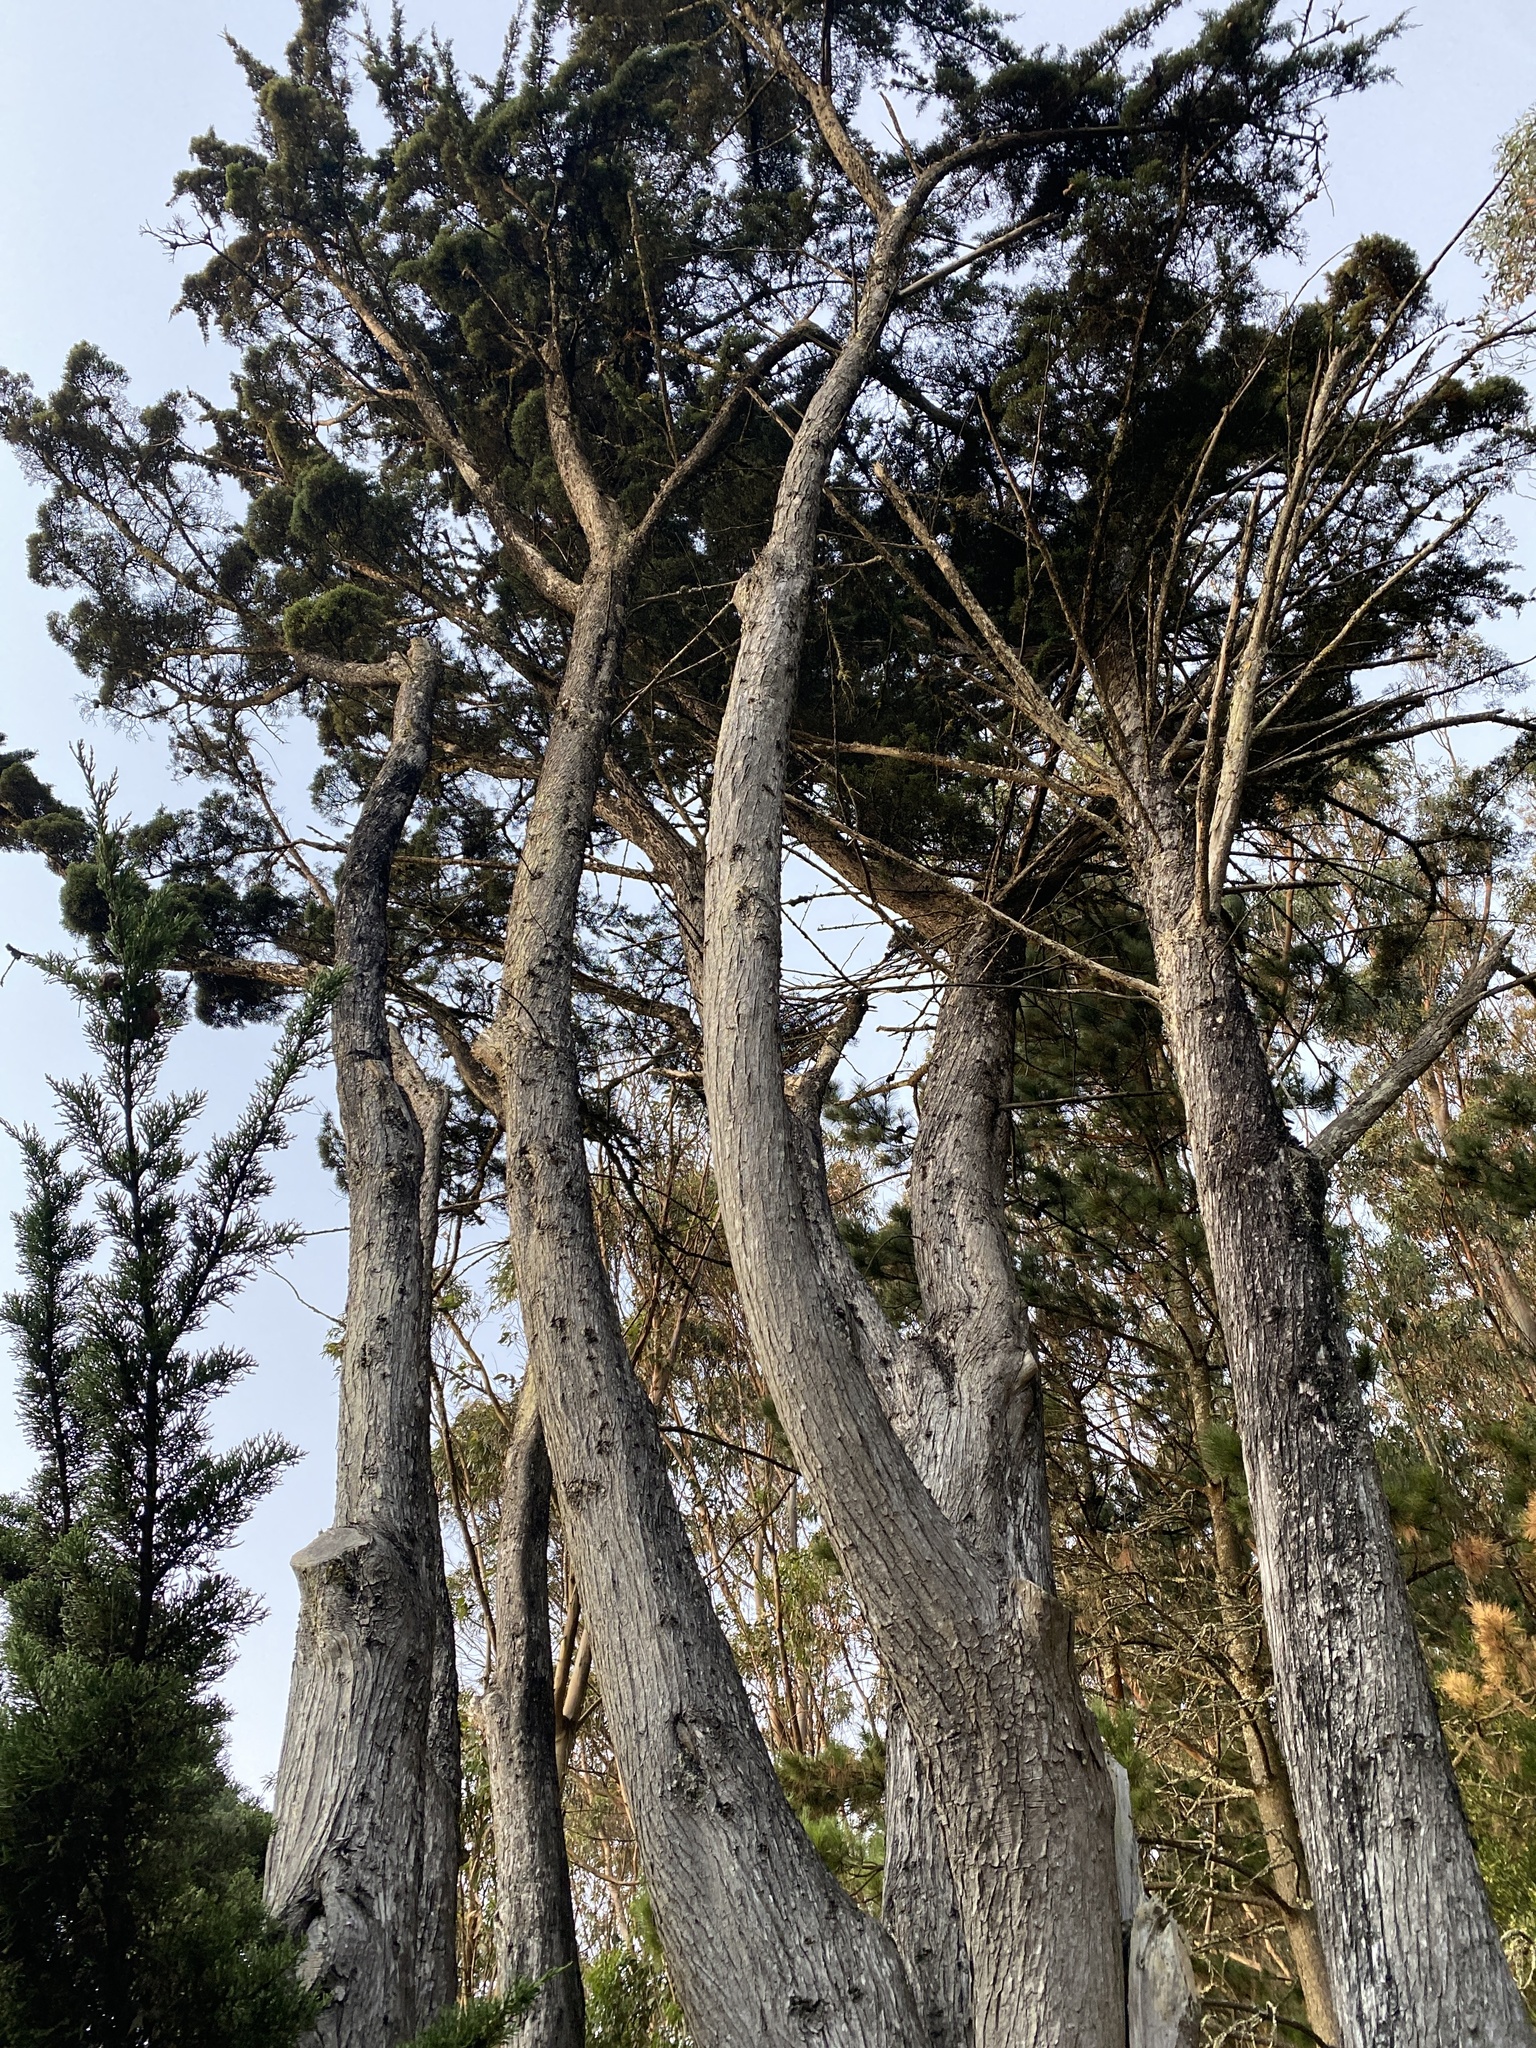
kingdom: Plantae
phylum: Tracheophyta
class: Pinopsida
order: Pinales
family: Cupressaceae
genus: Cupressus
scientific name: Cupressus macrocarpa
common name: Monterey cypress
